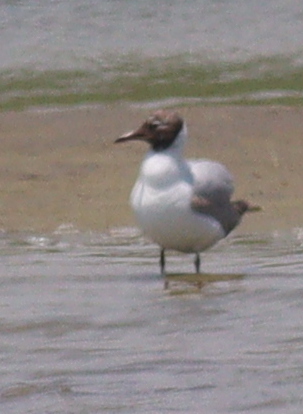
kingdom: Animalia
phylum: Chordata
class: Aves
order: Charadriiformes
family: Laridae
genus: Chroicocephalus
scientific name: Chroicocephalus ridibundus
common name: Black-headed gull
